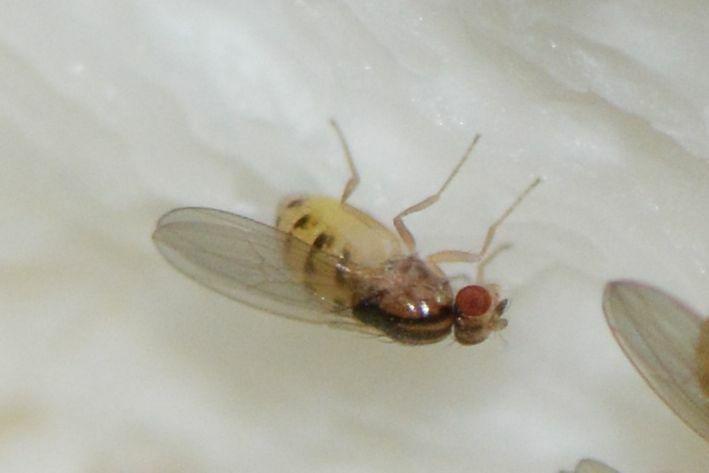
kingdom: Animalia
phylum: Arthropoda
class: Insecta
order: Diptera
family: Drosophilidae
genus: Hirtodrosophila
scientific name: Hirtodrosophila trivittata
